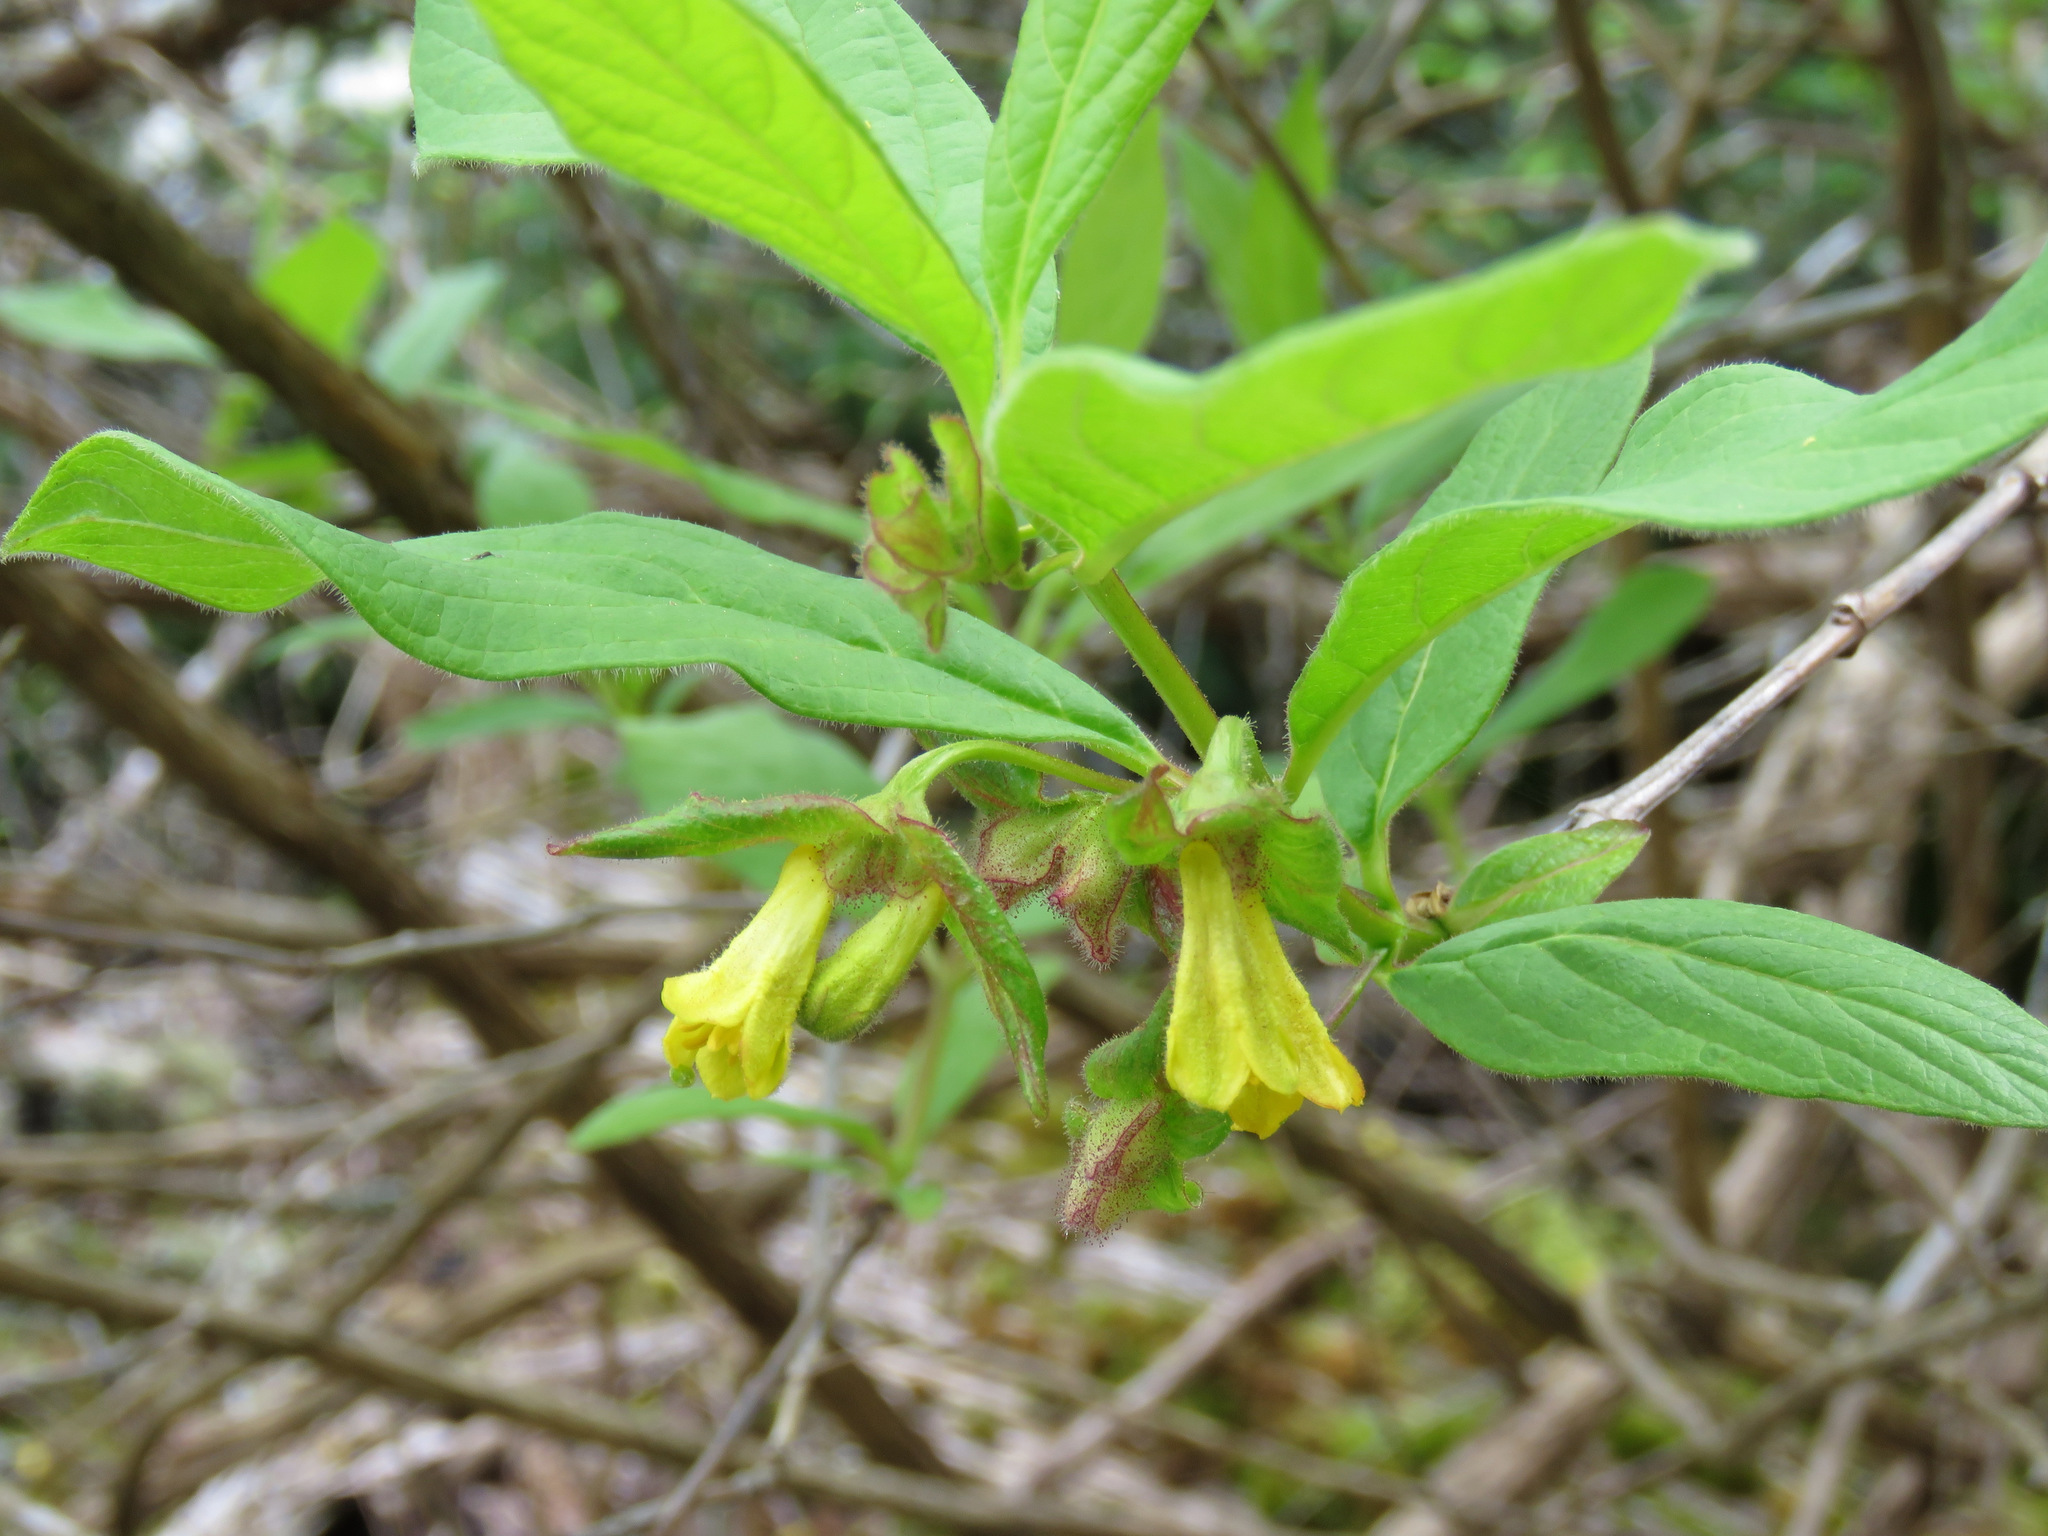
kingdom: Plantae
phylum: Tracheophyta
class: Magnoliopsida
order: Dipsacales
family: Caprifoliaceae
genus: Lonicera
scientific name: Lonicera involucrata
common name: Californian honeysuckle
